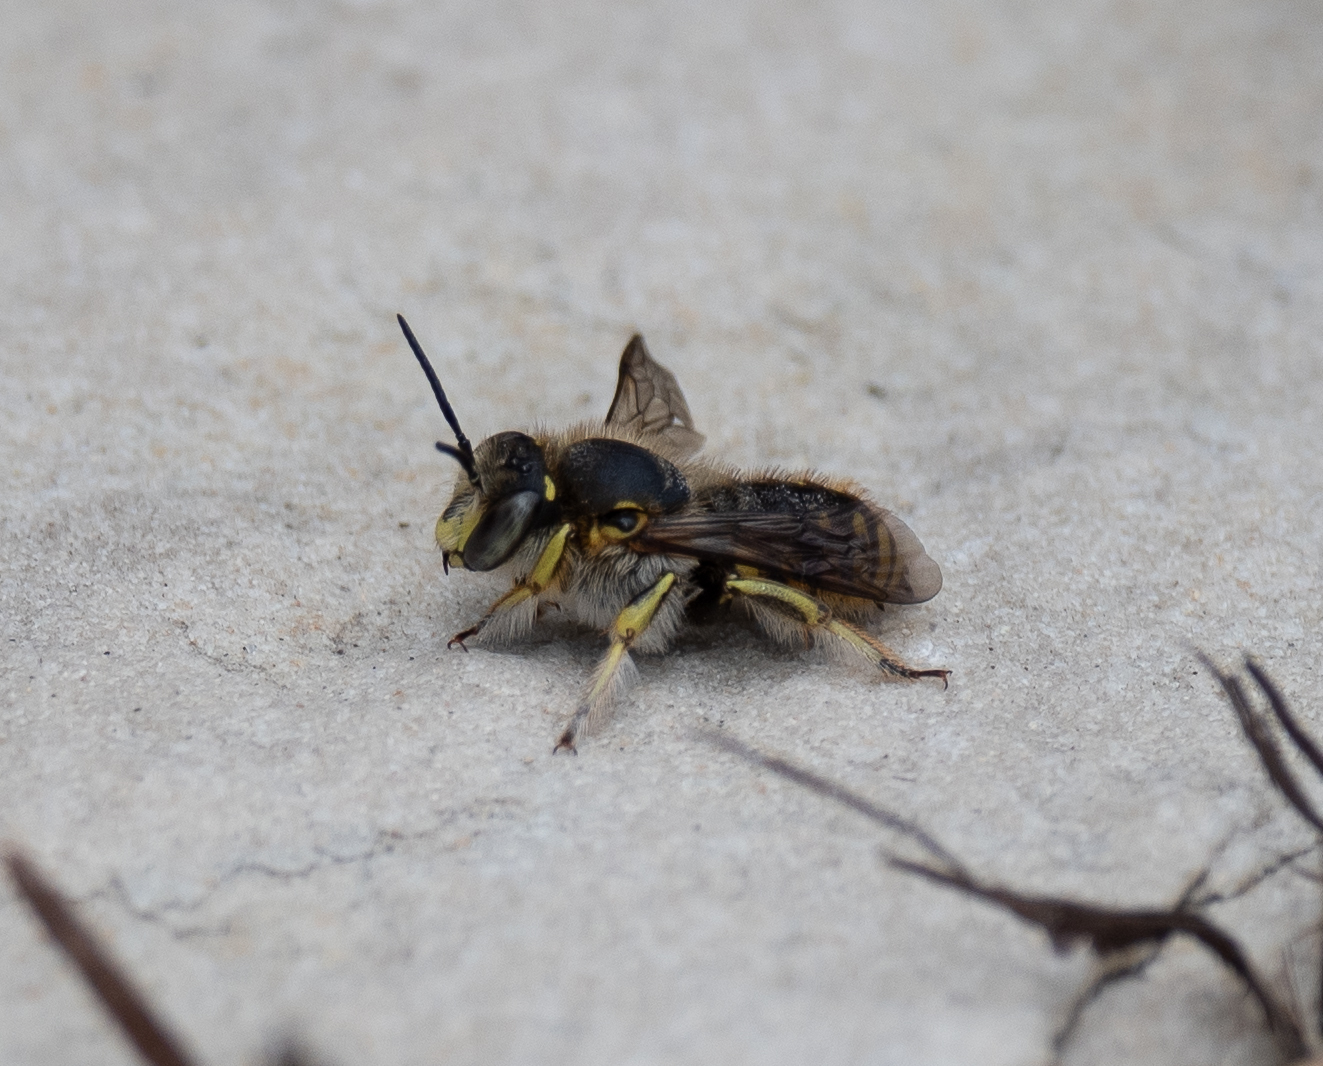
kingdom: Animalia
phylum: Arthropoda
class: Insecta
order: Hymenoptera
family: Megachilidae
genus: Anthidium
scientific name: Anthidium manicatum
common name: Wool carder bee
